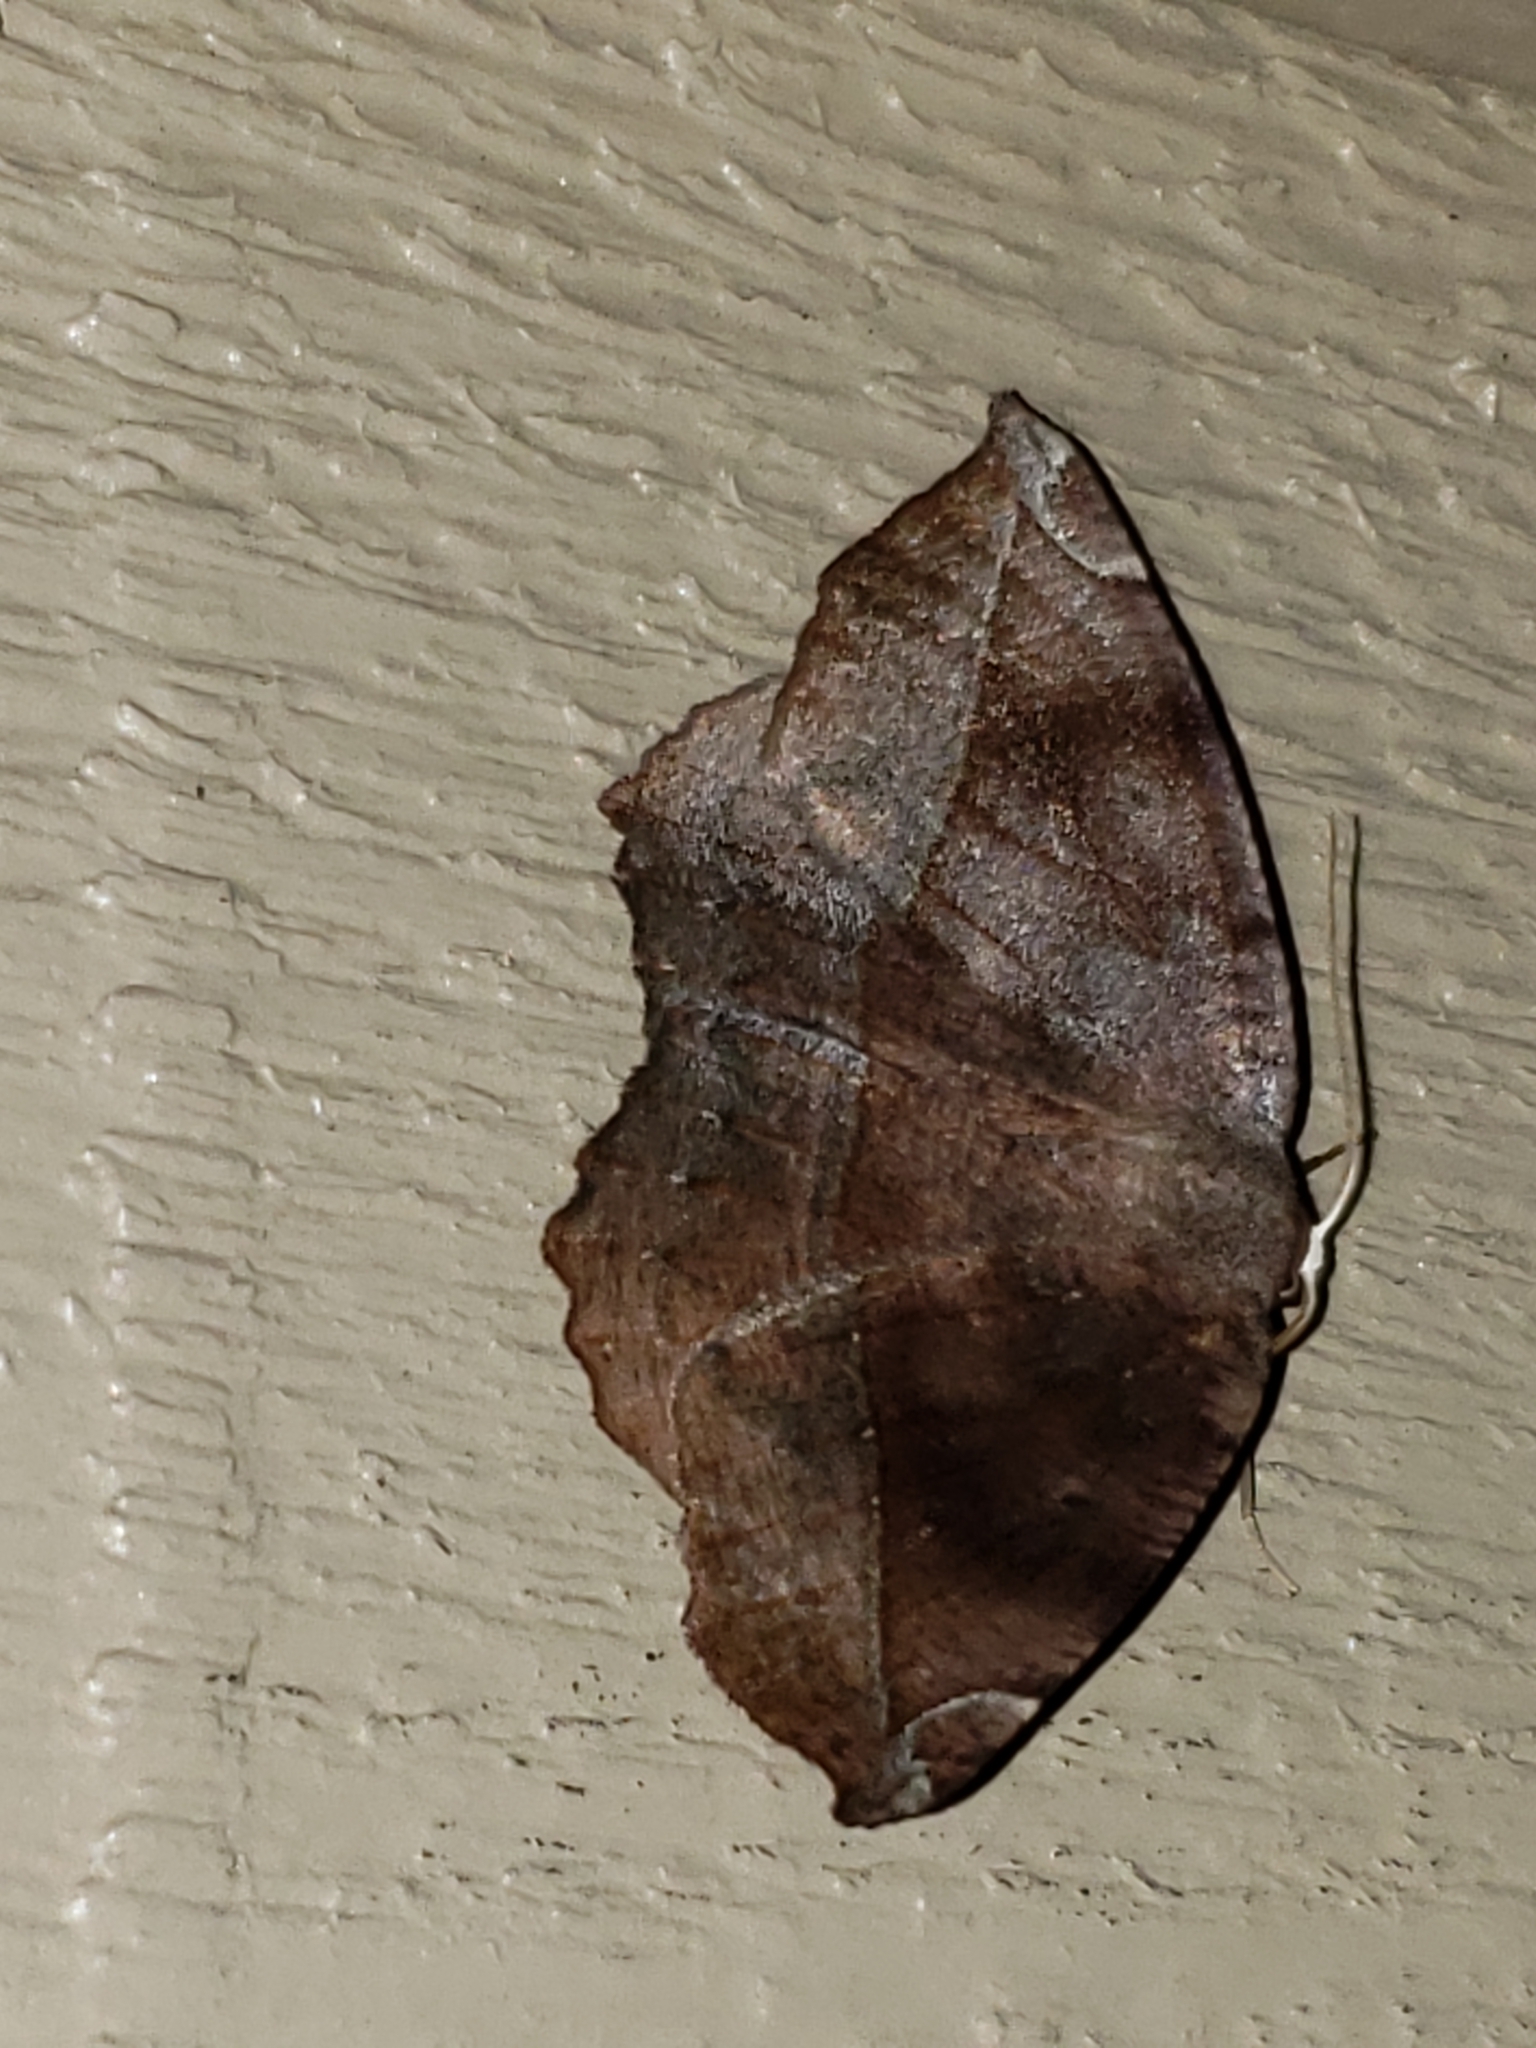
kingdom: Animalia
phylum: Arthropoda
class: Insecta
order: Lepidoptera
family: Geometridae
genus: Eutrapela
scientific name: Eutrapela clemataria
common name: Curved-toothed geometer
